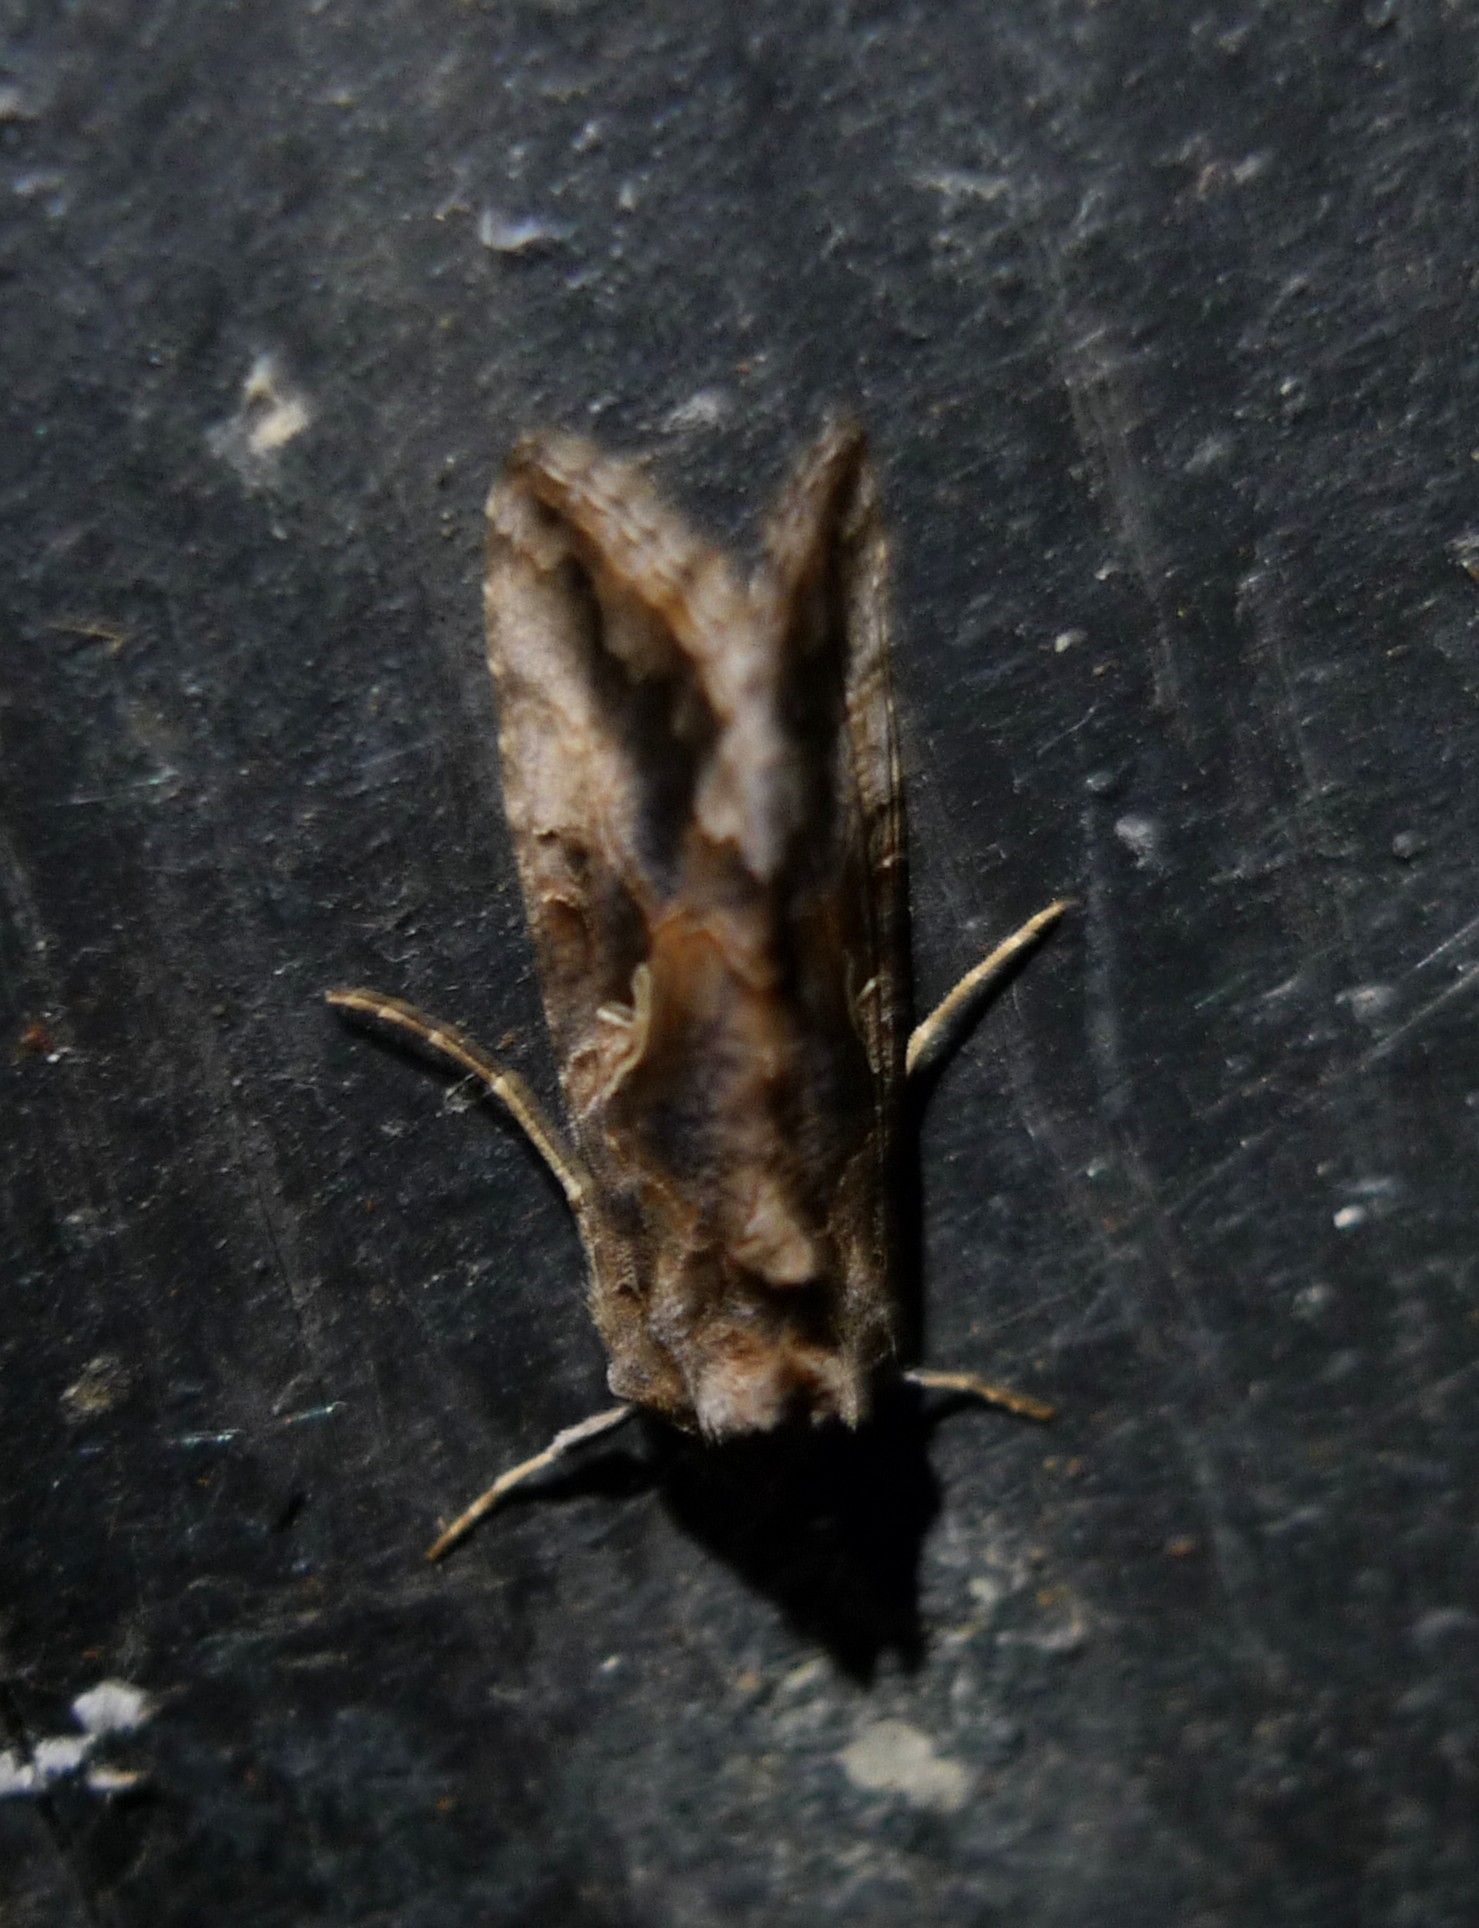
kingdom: Animalia
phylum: Arthropoda
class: Insecta
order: Lepidoptera
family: Noctuidae
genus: Autographa
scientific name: Autographa gamma
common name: Silver y
